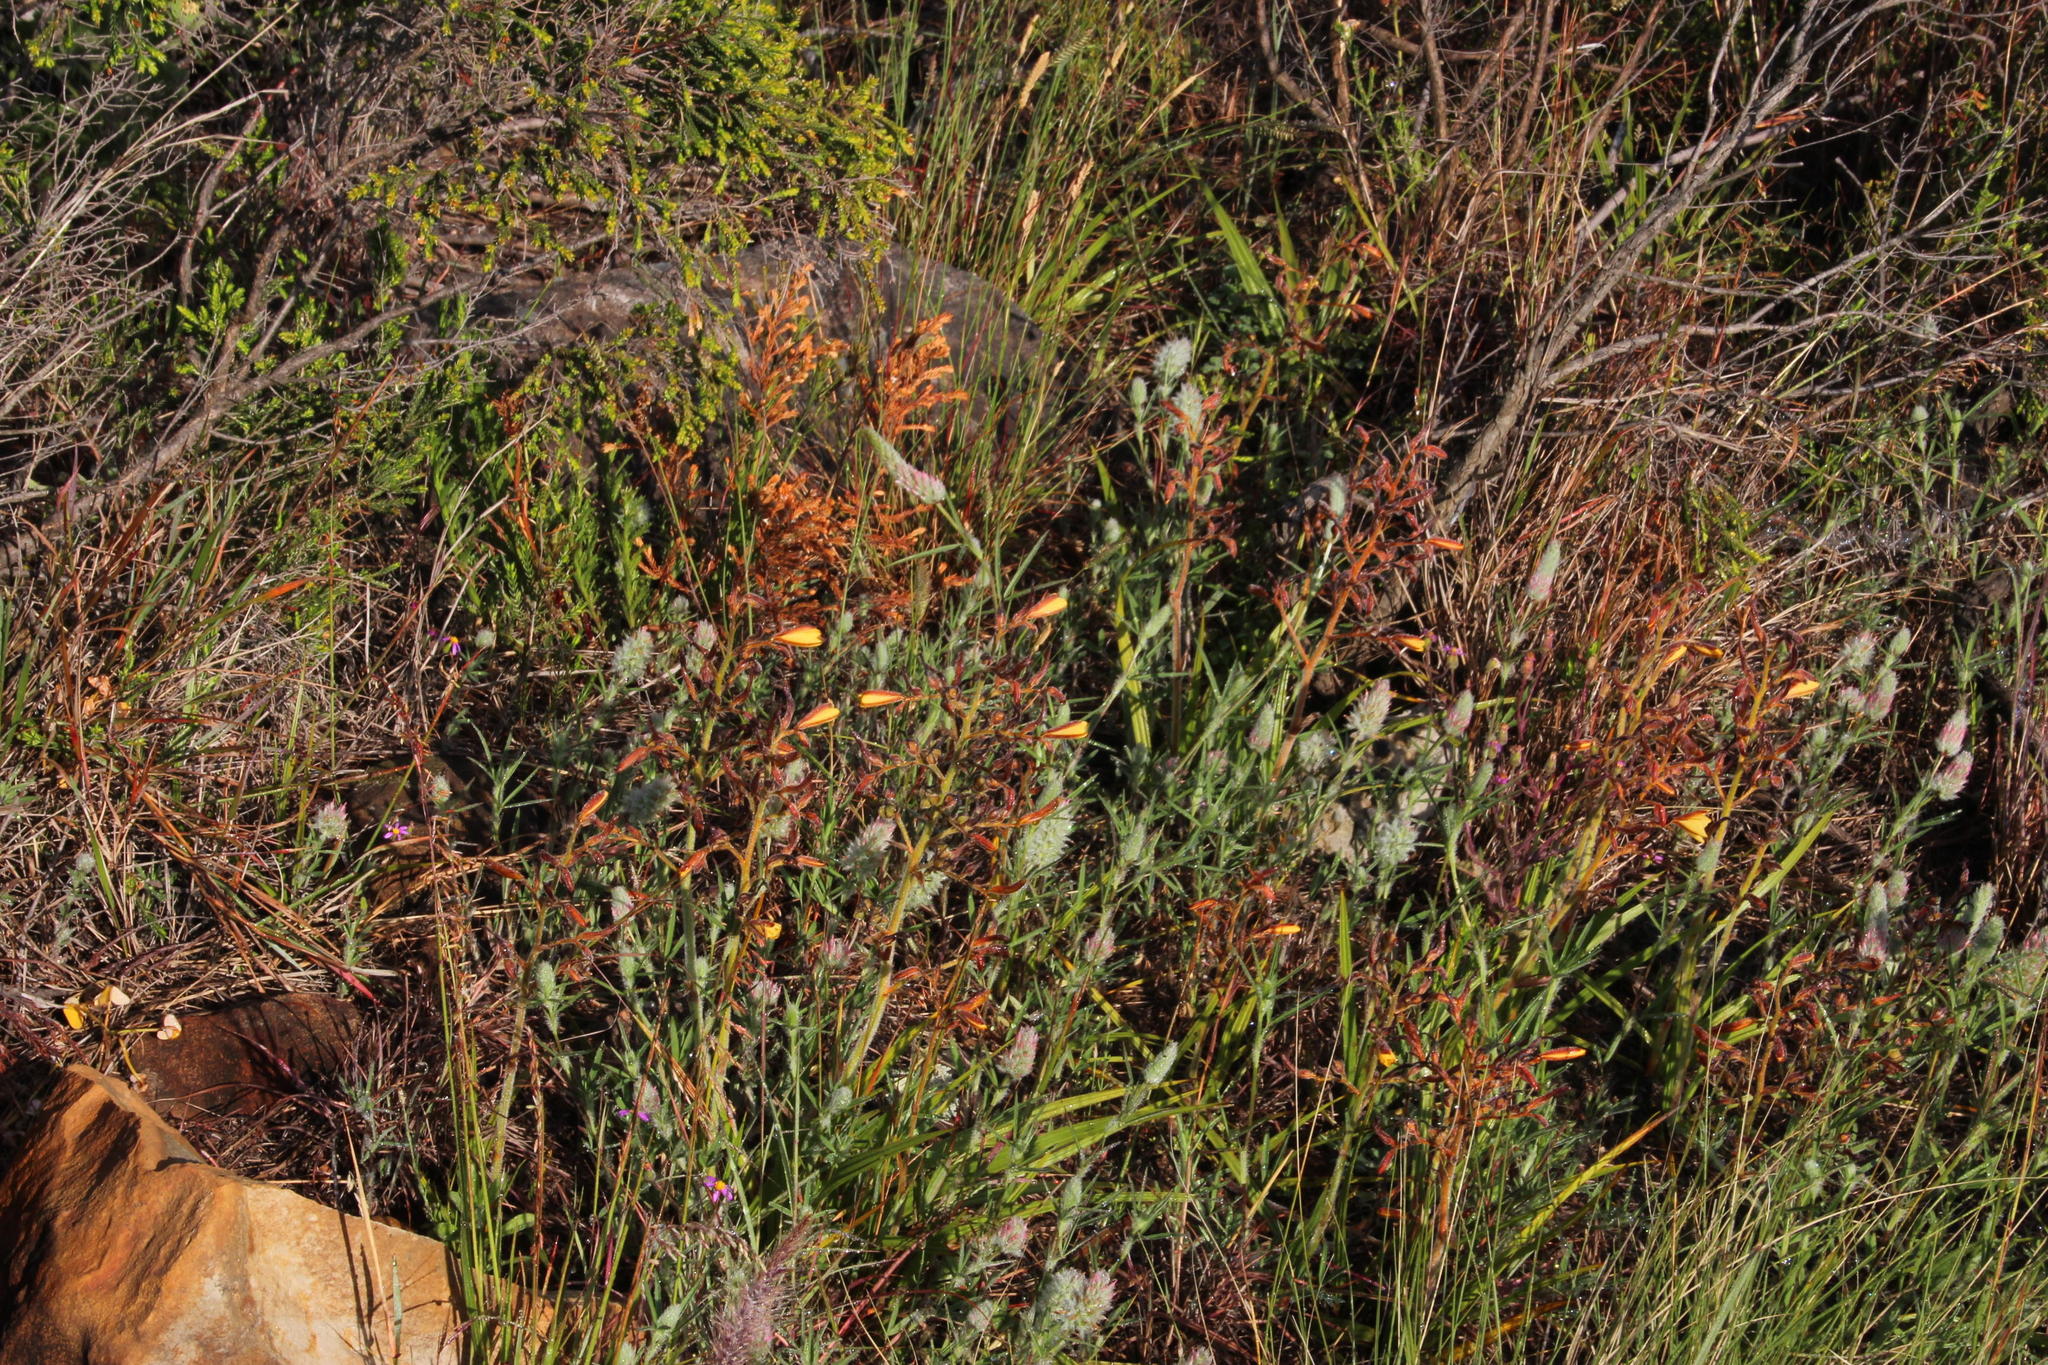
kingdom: Plantae
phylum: Tracheophyta
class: Liliopsida
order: Commelinales
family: Haemodoraceae
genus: Wachendorfia
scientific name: Wachendorfia paniculata
